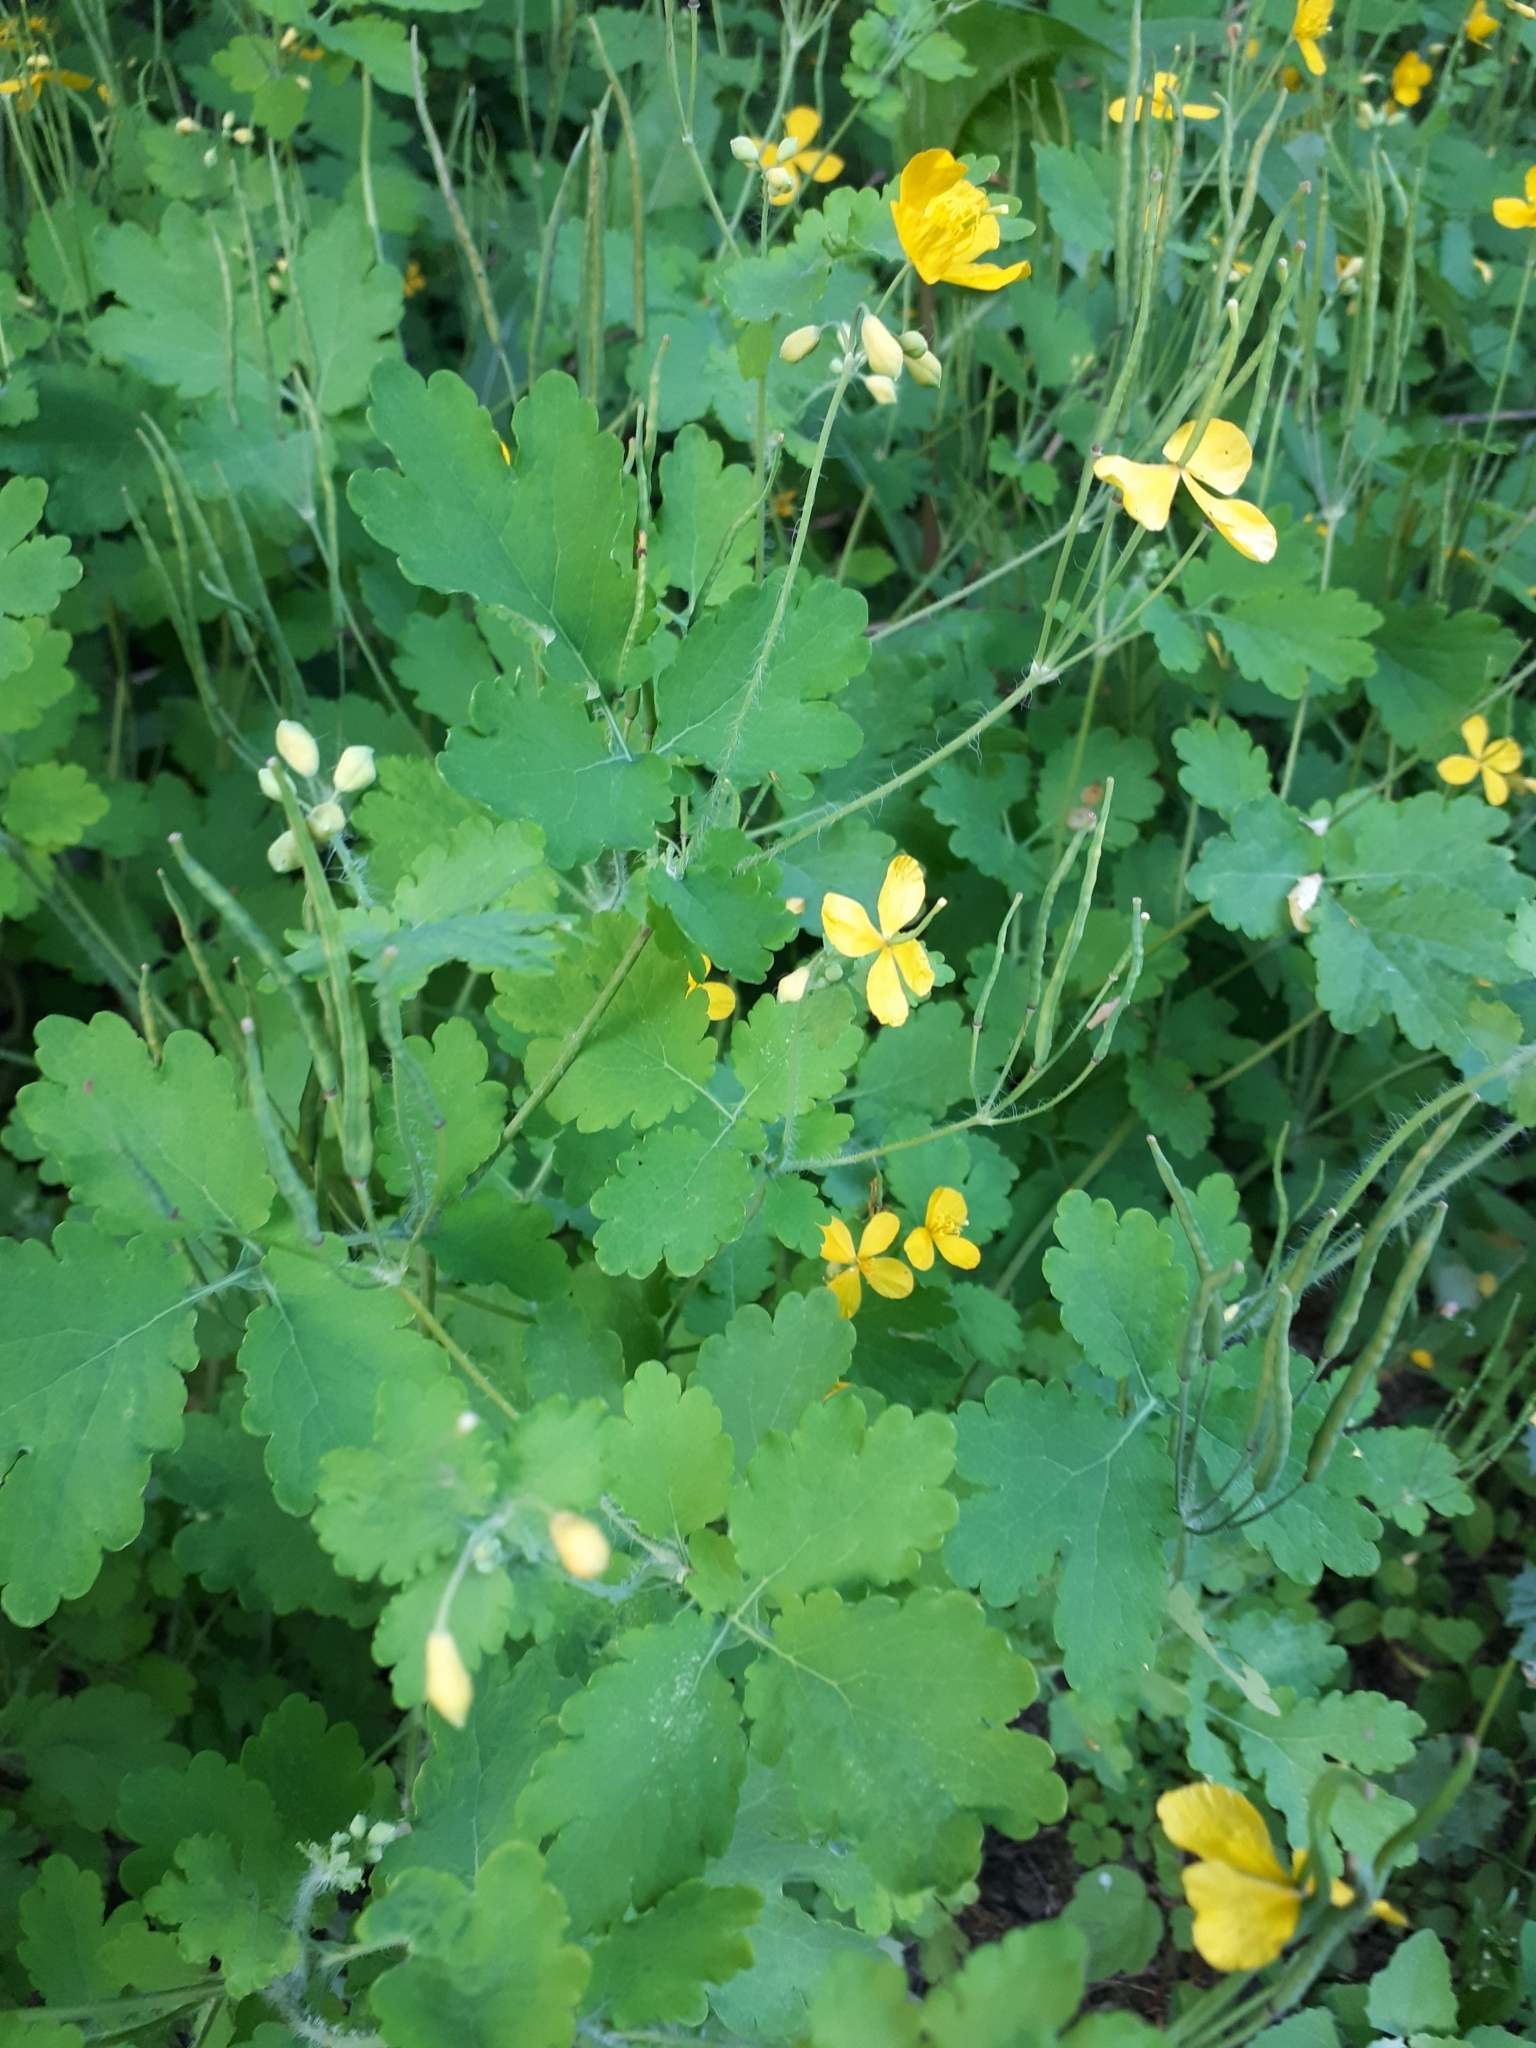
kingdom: Plantae
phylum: Tracheophyta
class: Magnoliopsida
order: Ranunculales
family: Papaveraceae
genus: Chelidonium
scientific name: Chelidonium majus
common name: Greater celandine
